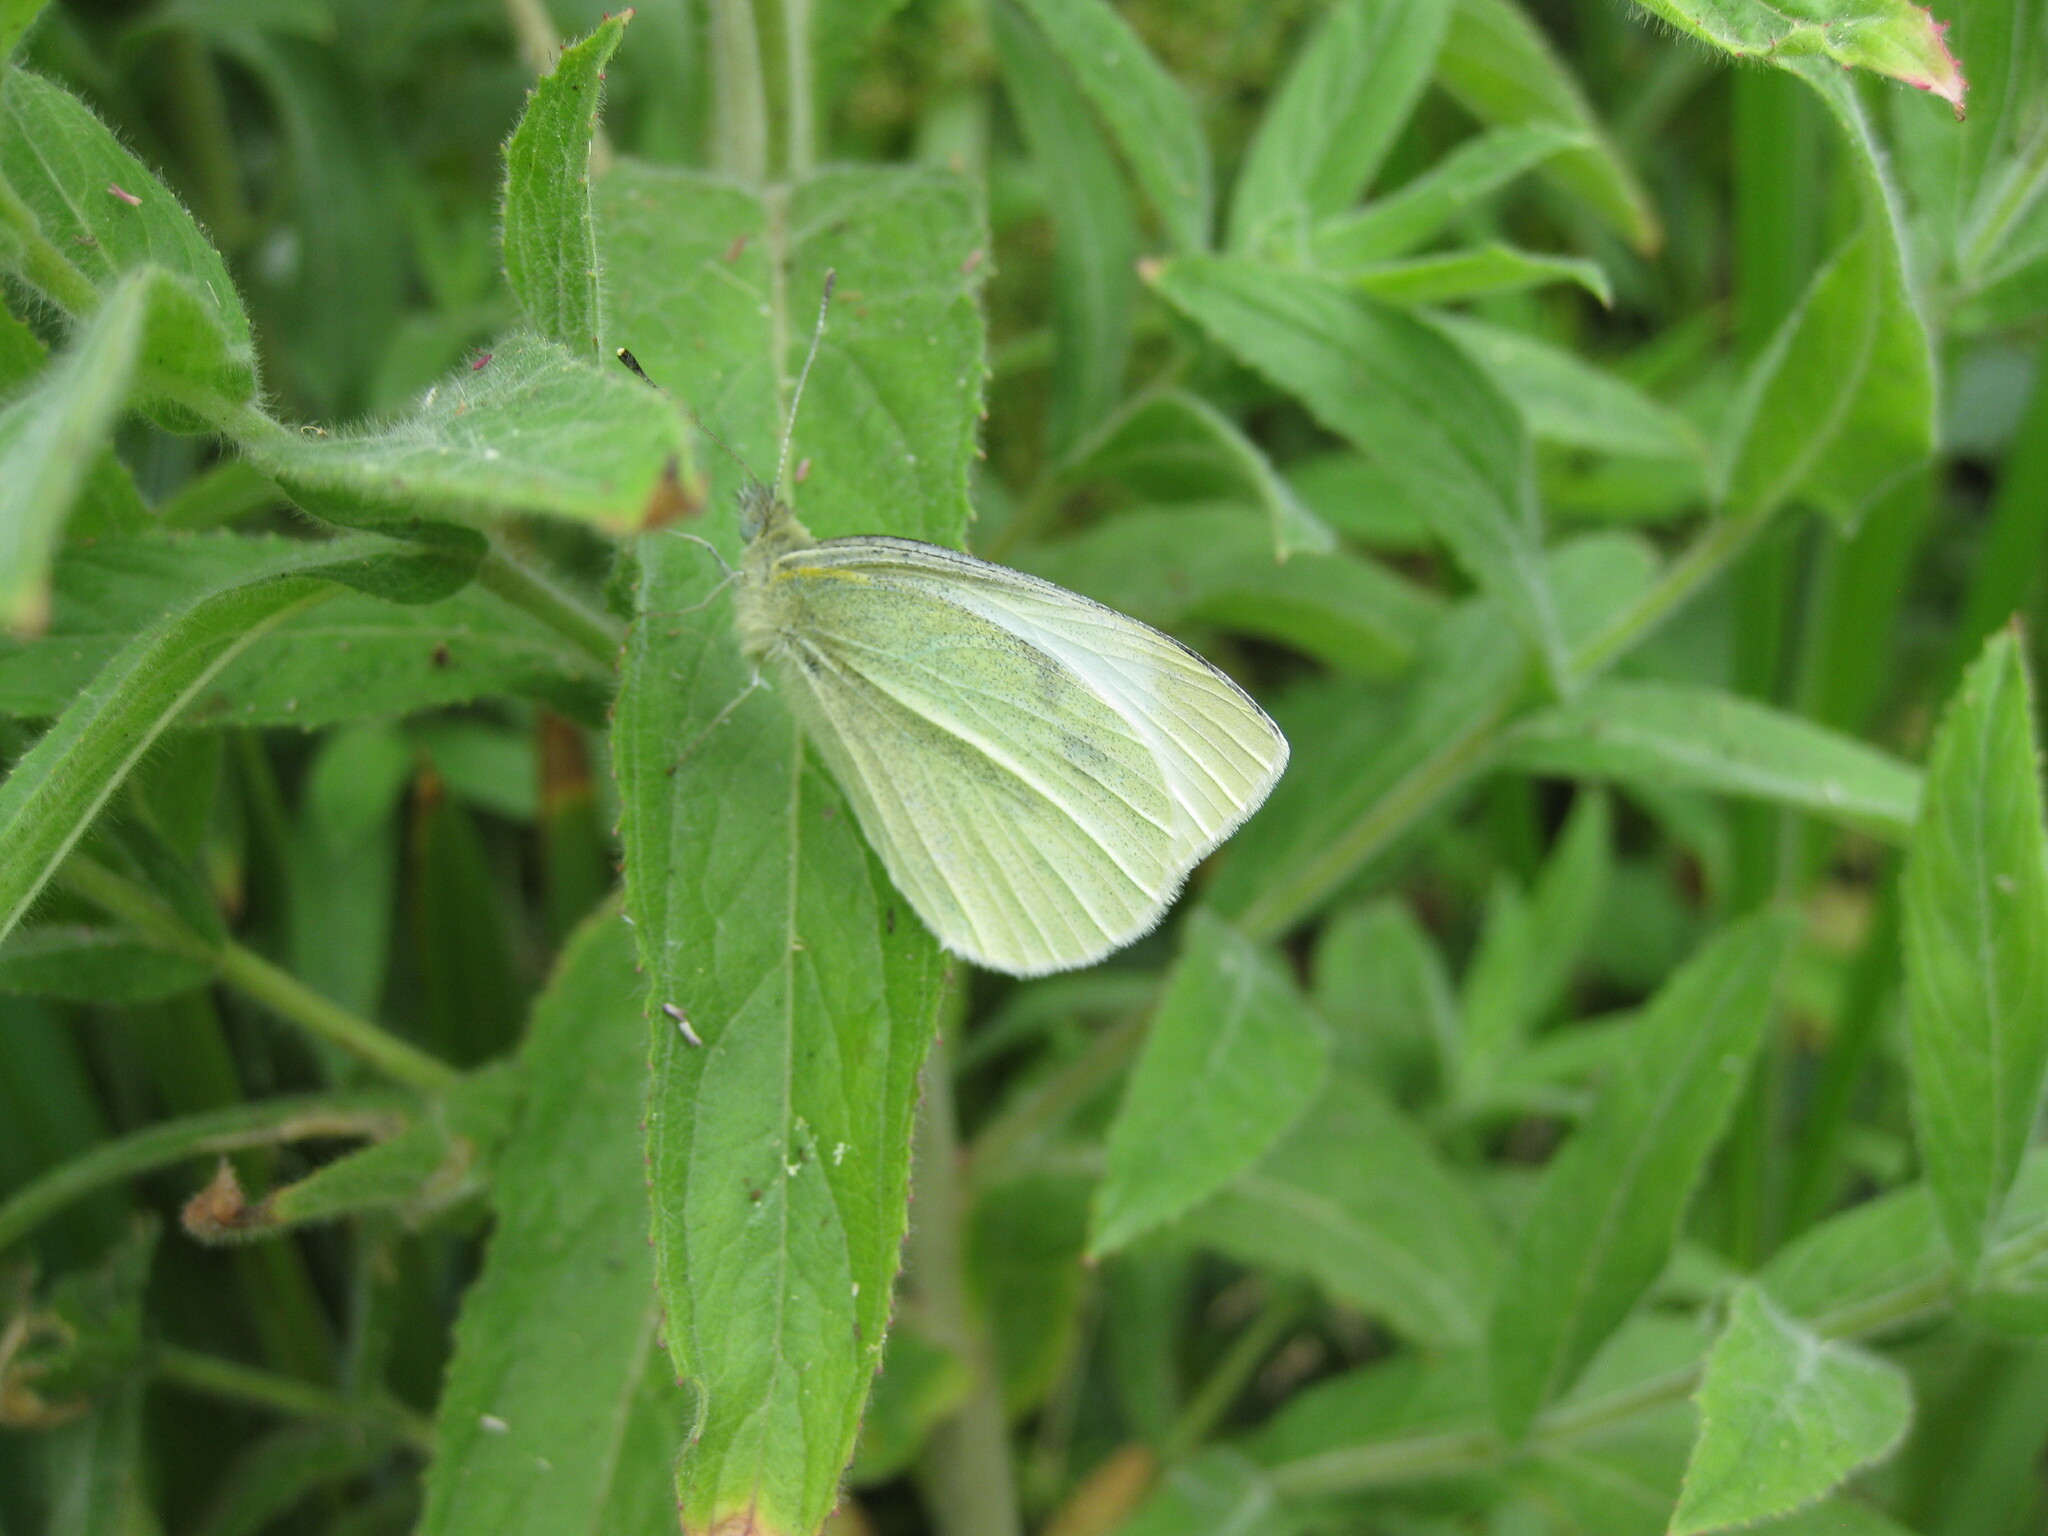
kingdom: Animalia
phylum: Arthropoda
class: Insecta
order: Lepidoptera
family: Pieridae
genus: Pieris
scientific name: Pieris rapae
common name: Small white
